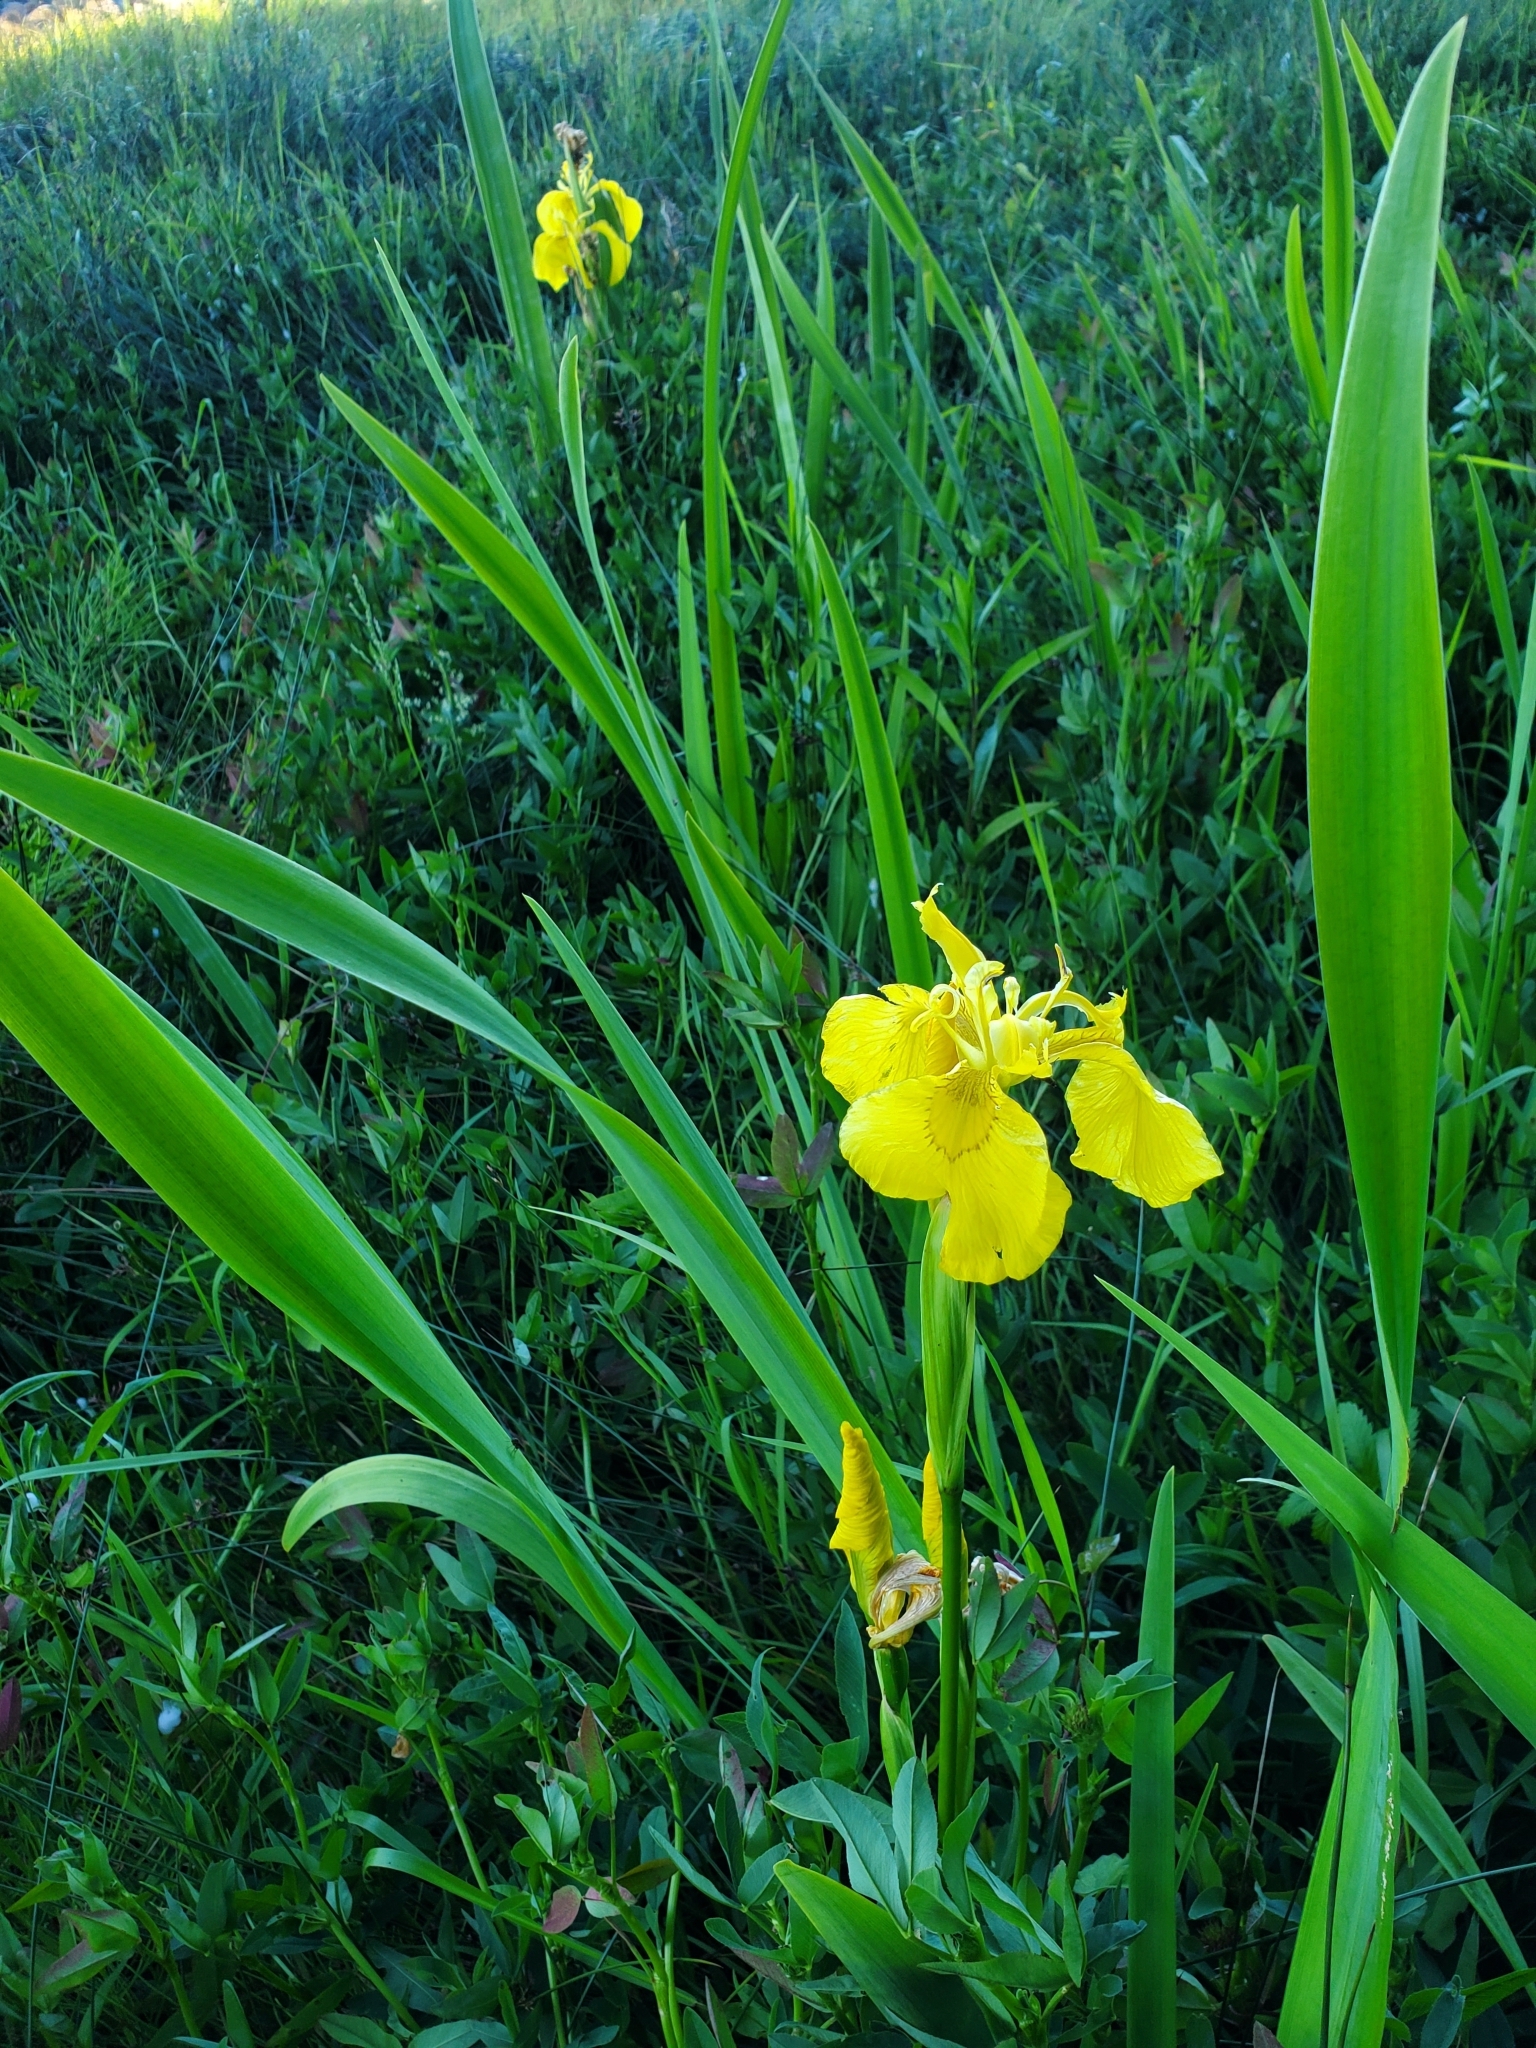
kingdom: Plantae
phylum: Tracheophyta
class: Liliopsida
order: Asparagales
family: Iridaceae
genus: Iris
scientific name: Iris pseudacorus
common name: Yellow flag
